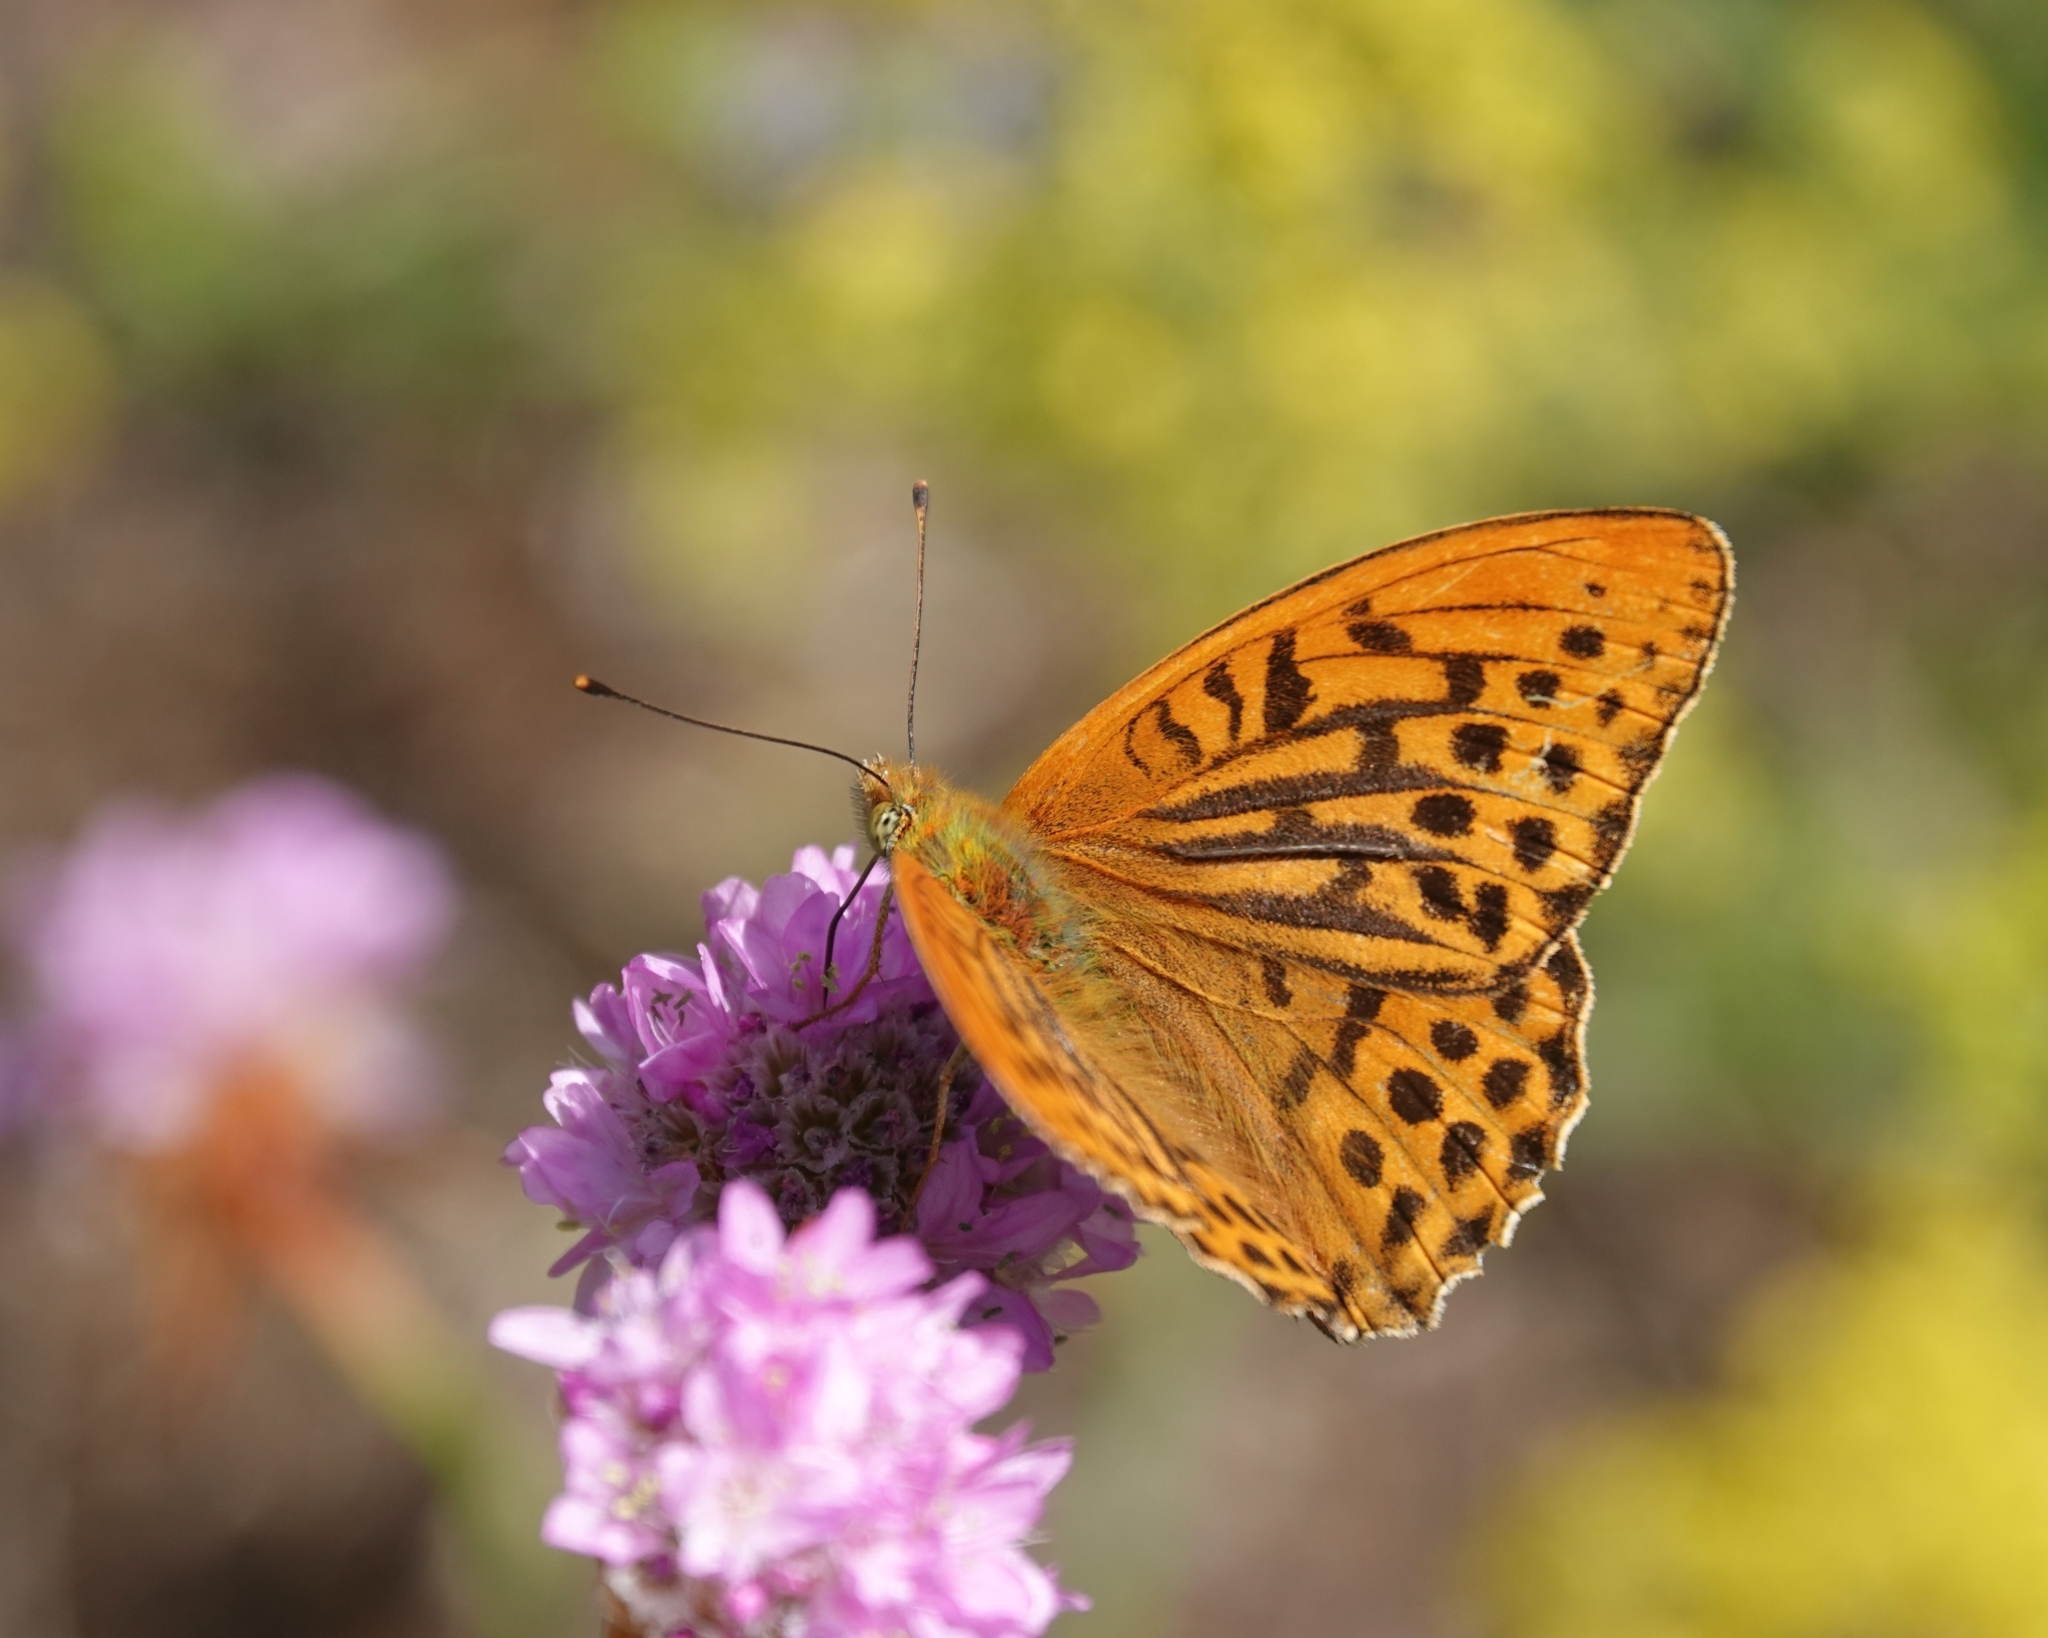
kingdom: Animalia
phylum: Arthropoda
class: Insecta
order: Lepidoptera
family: Nymphalidae
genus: Argynnis
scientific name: Argynnis paphia
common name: Silver-washed fritillary
